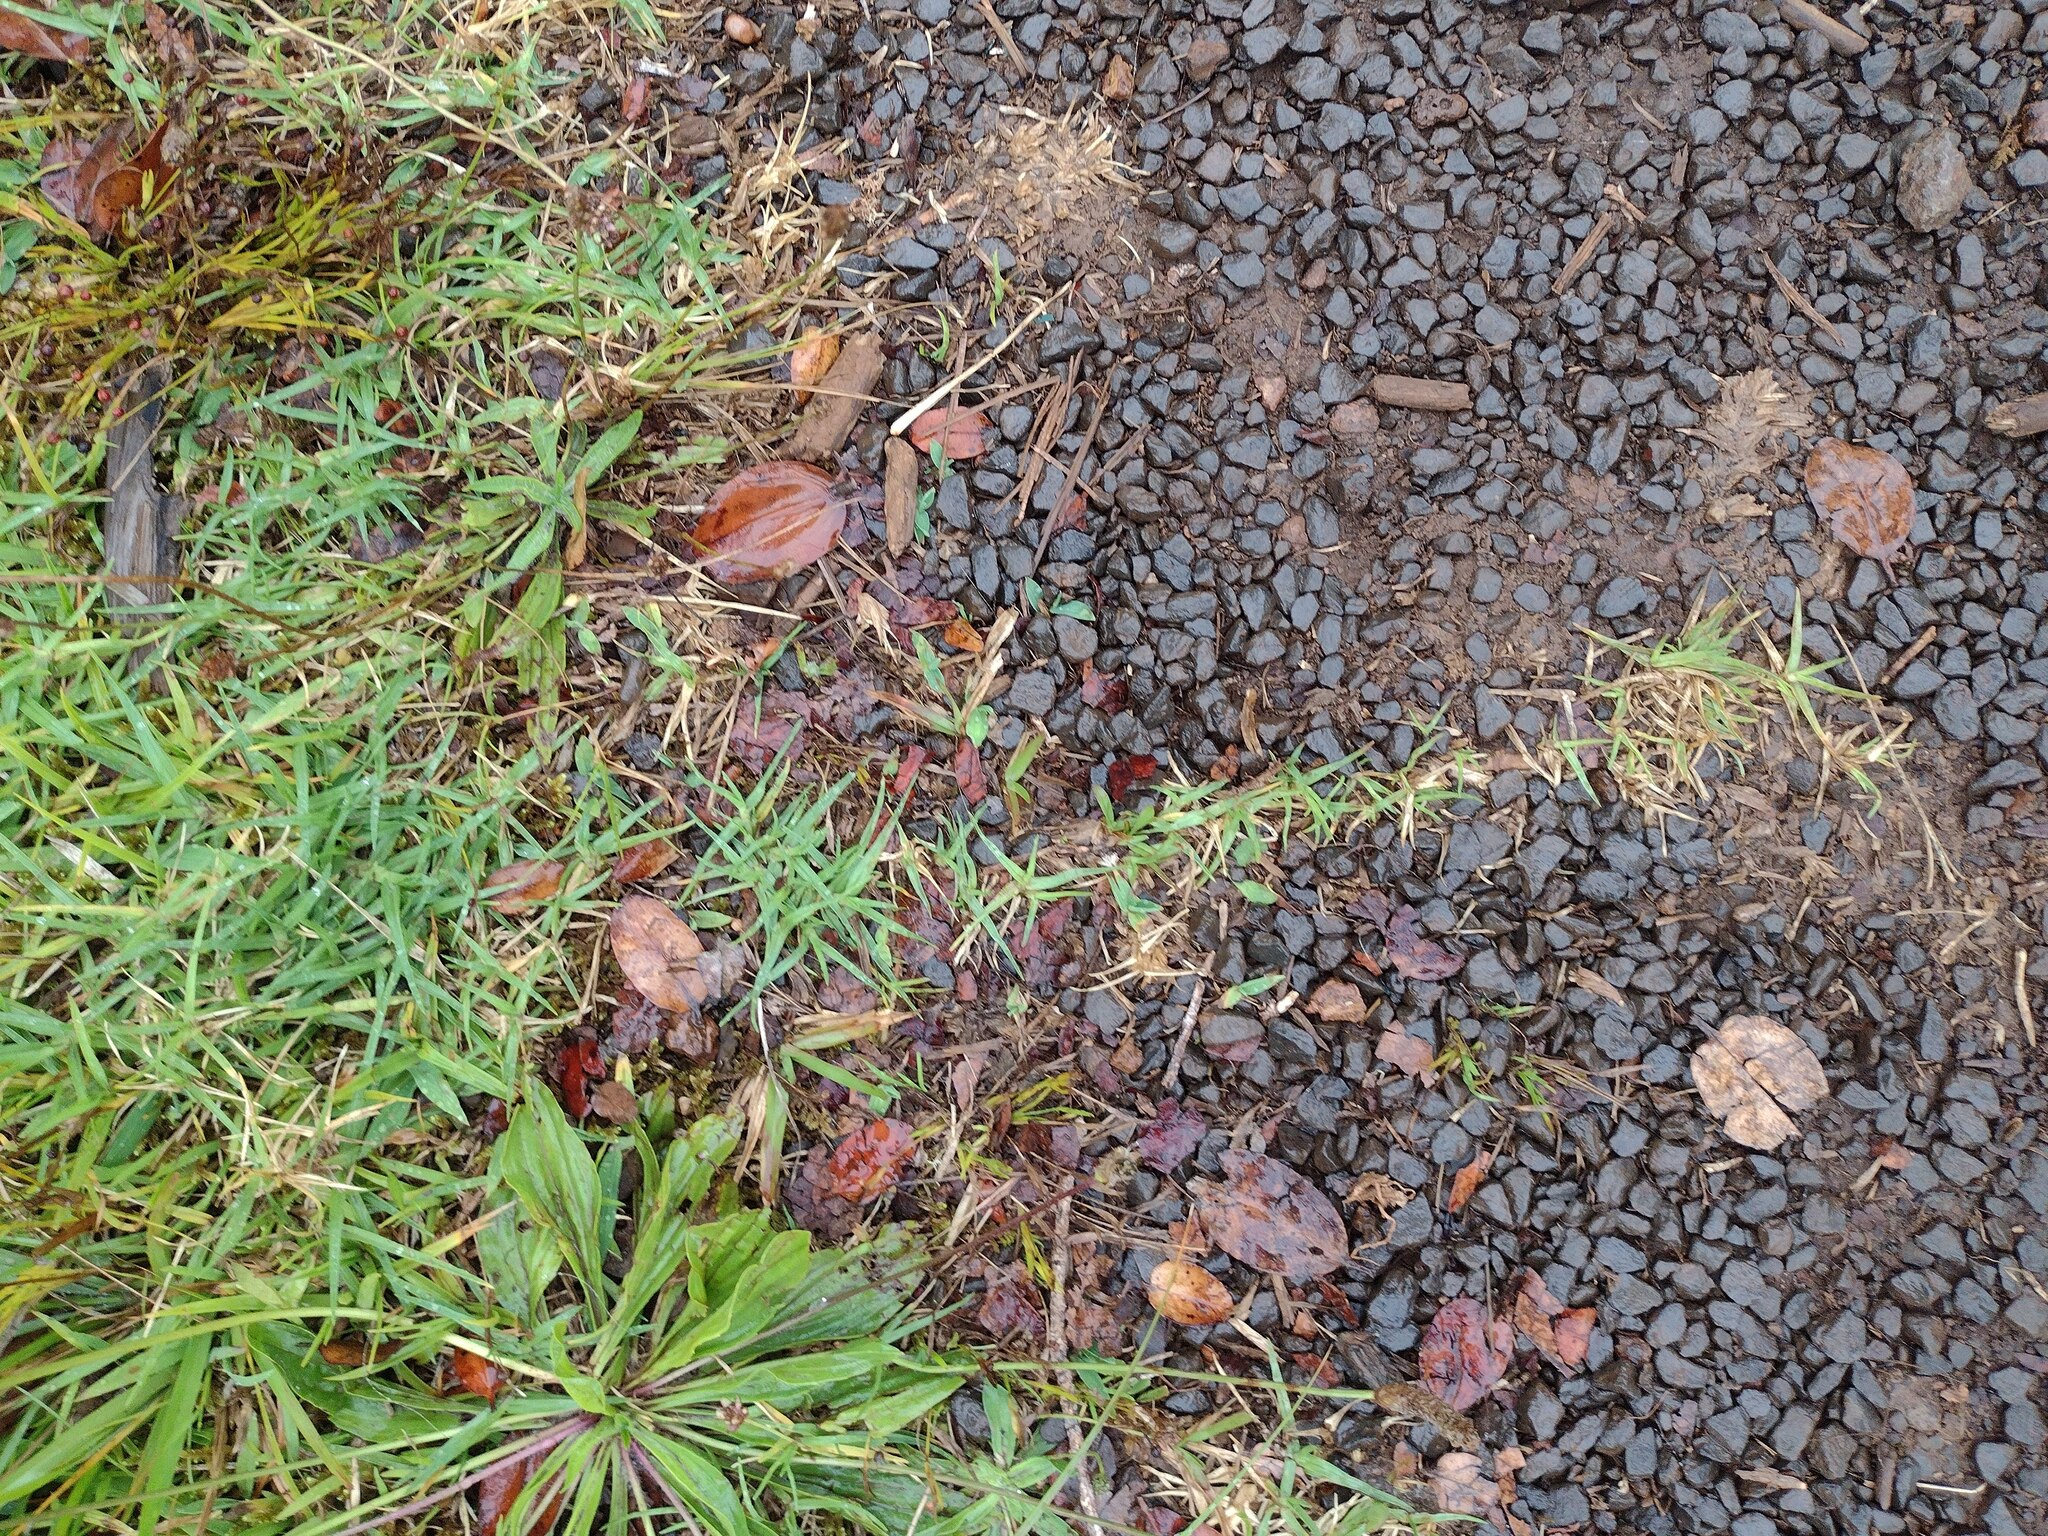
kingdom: Plantae
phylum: Tracheophyta
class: Liliopsida
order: Poales
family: Poaceae
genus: Cenchrus
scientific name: Cenchrus clandestinus
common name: Kikuyugrass
